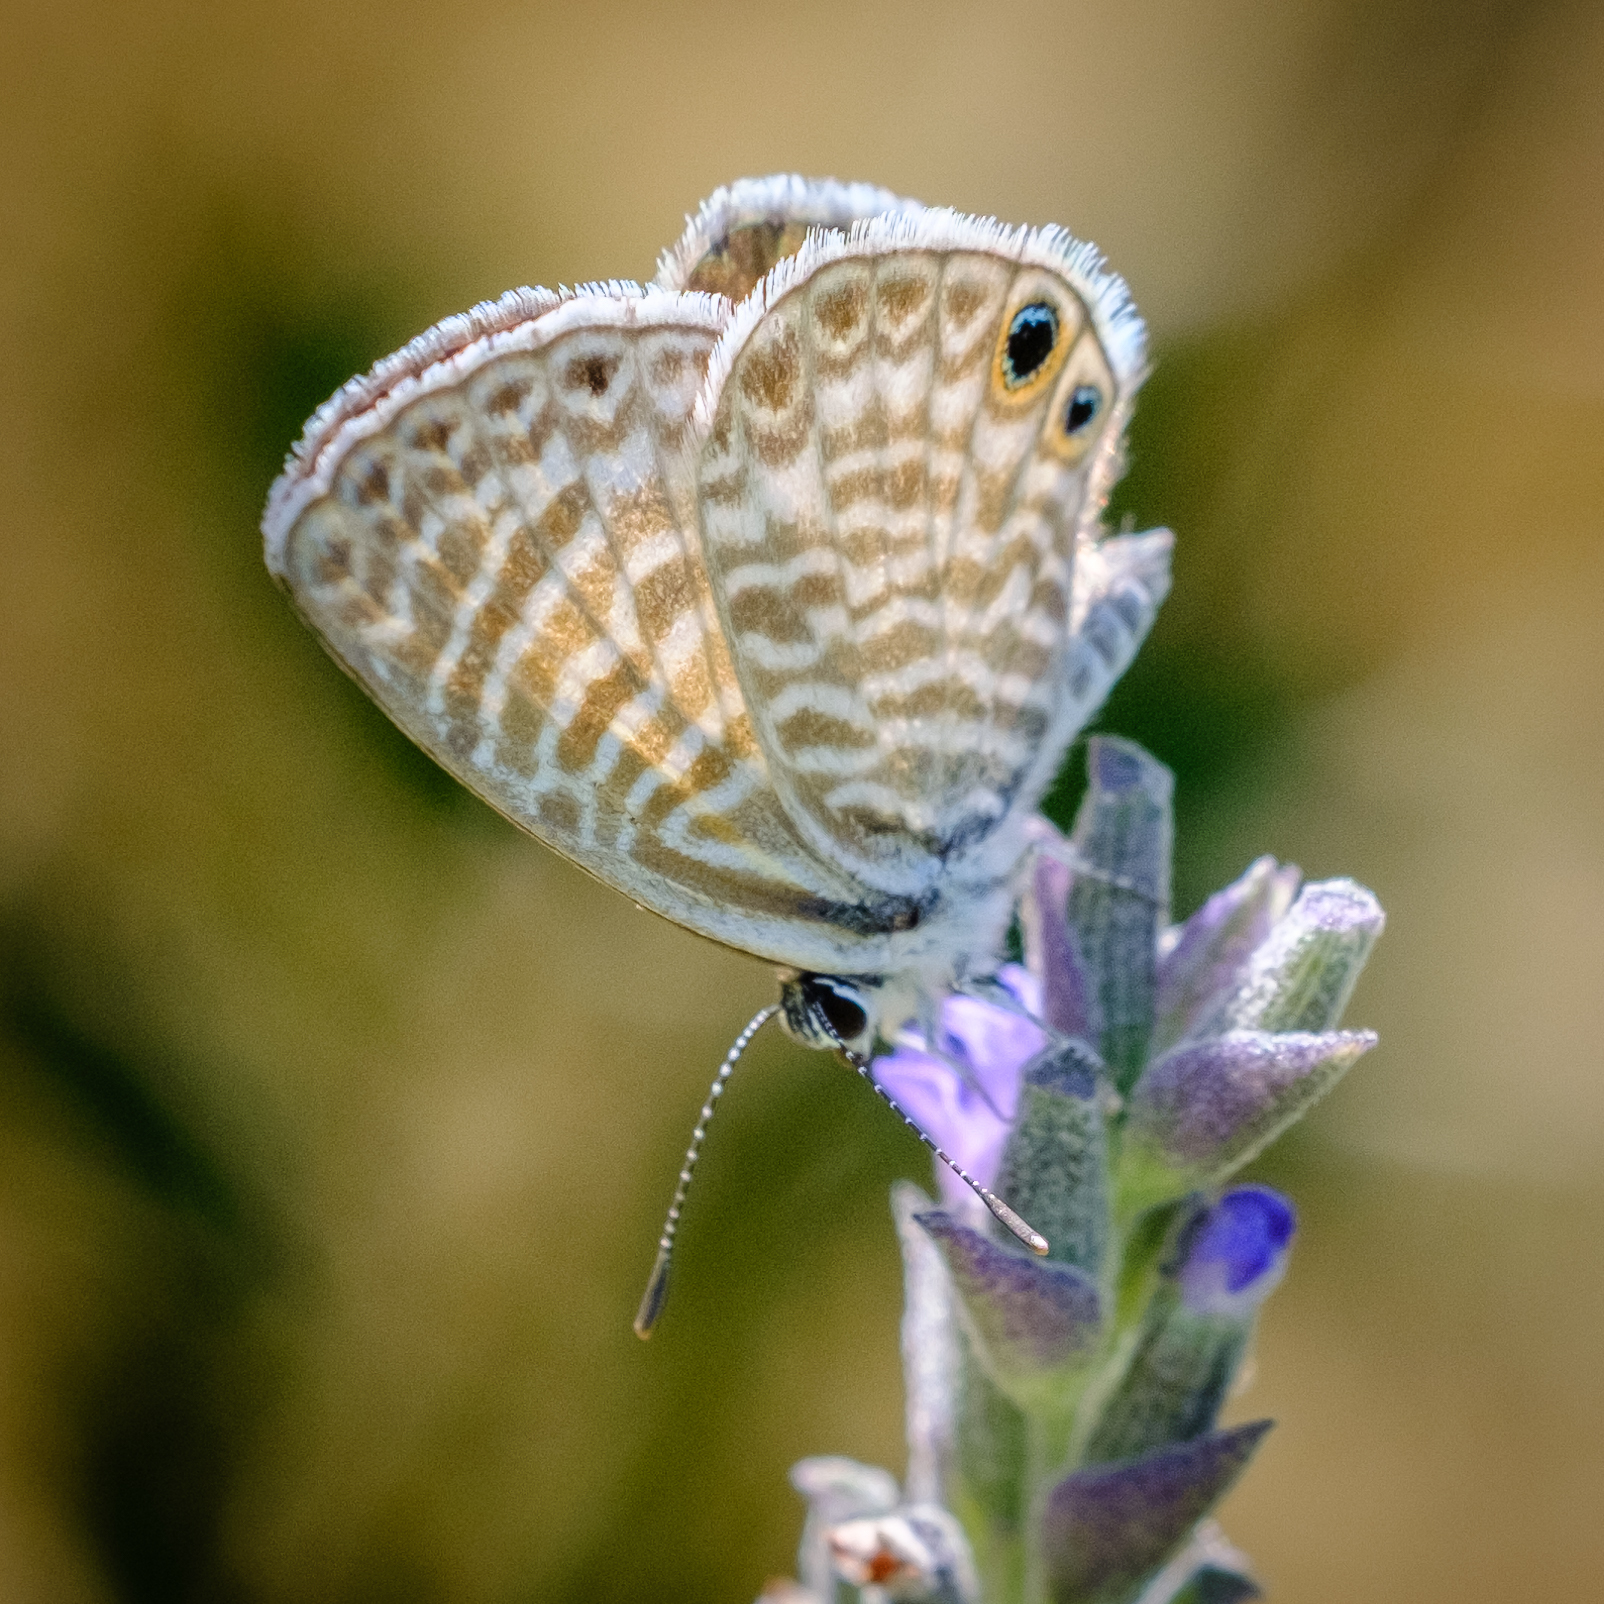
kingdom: Animalia
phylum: Arthropoda
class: Insecta
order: Lepidoptera
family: Lycaenidae
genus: Leptotes
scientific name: Leptotes marina
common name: Marine blue
